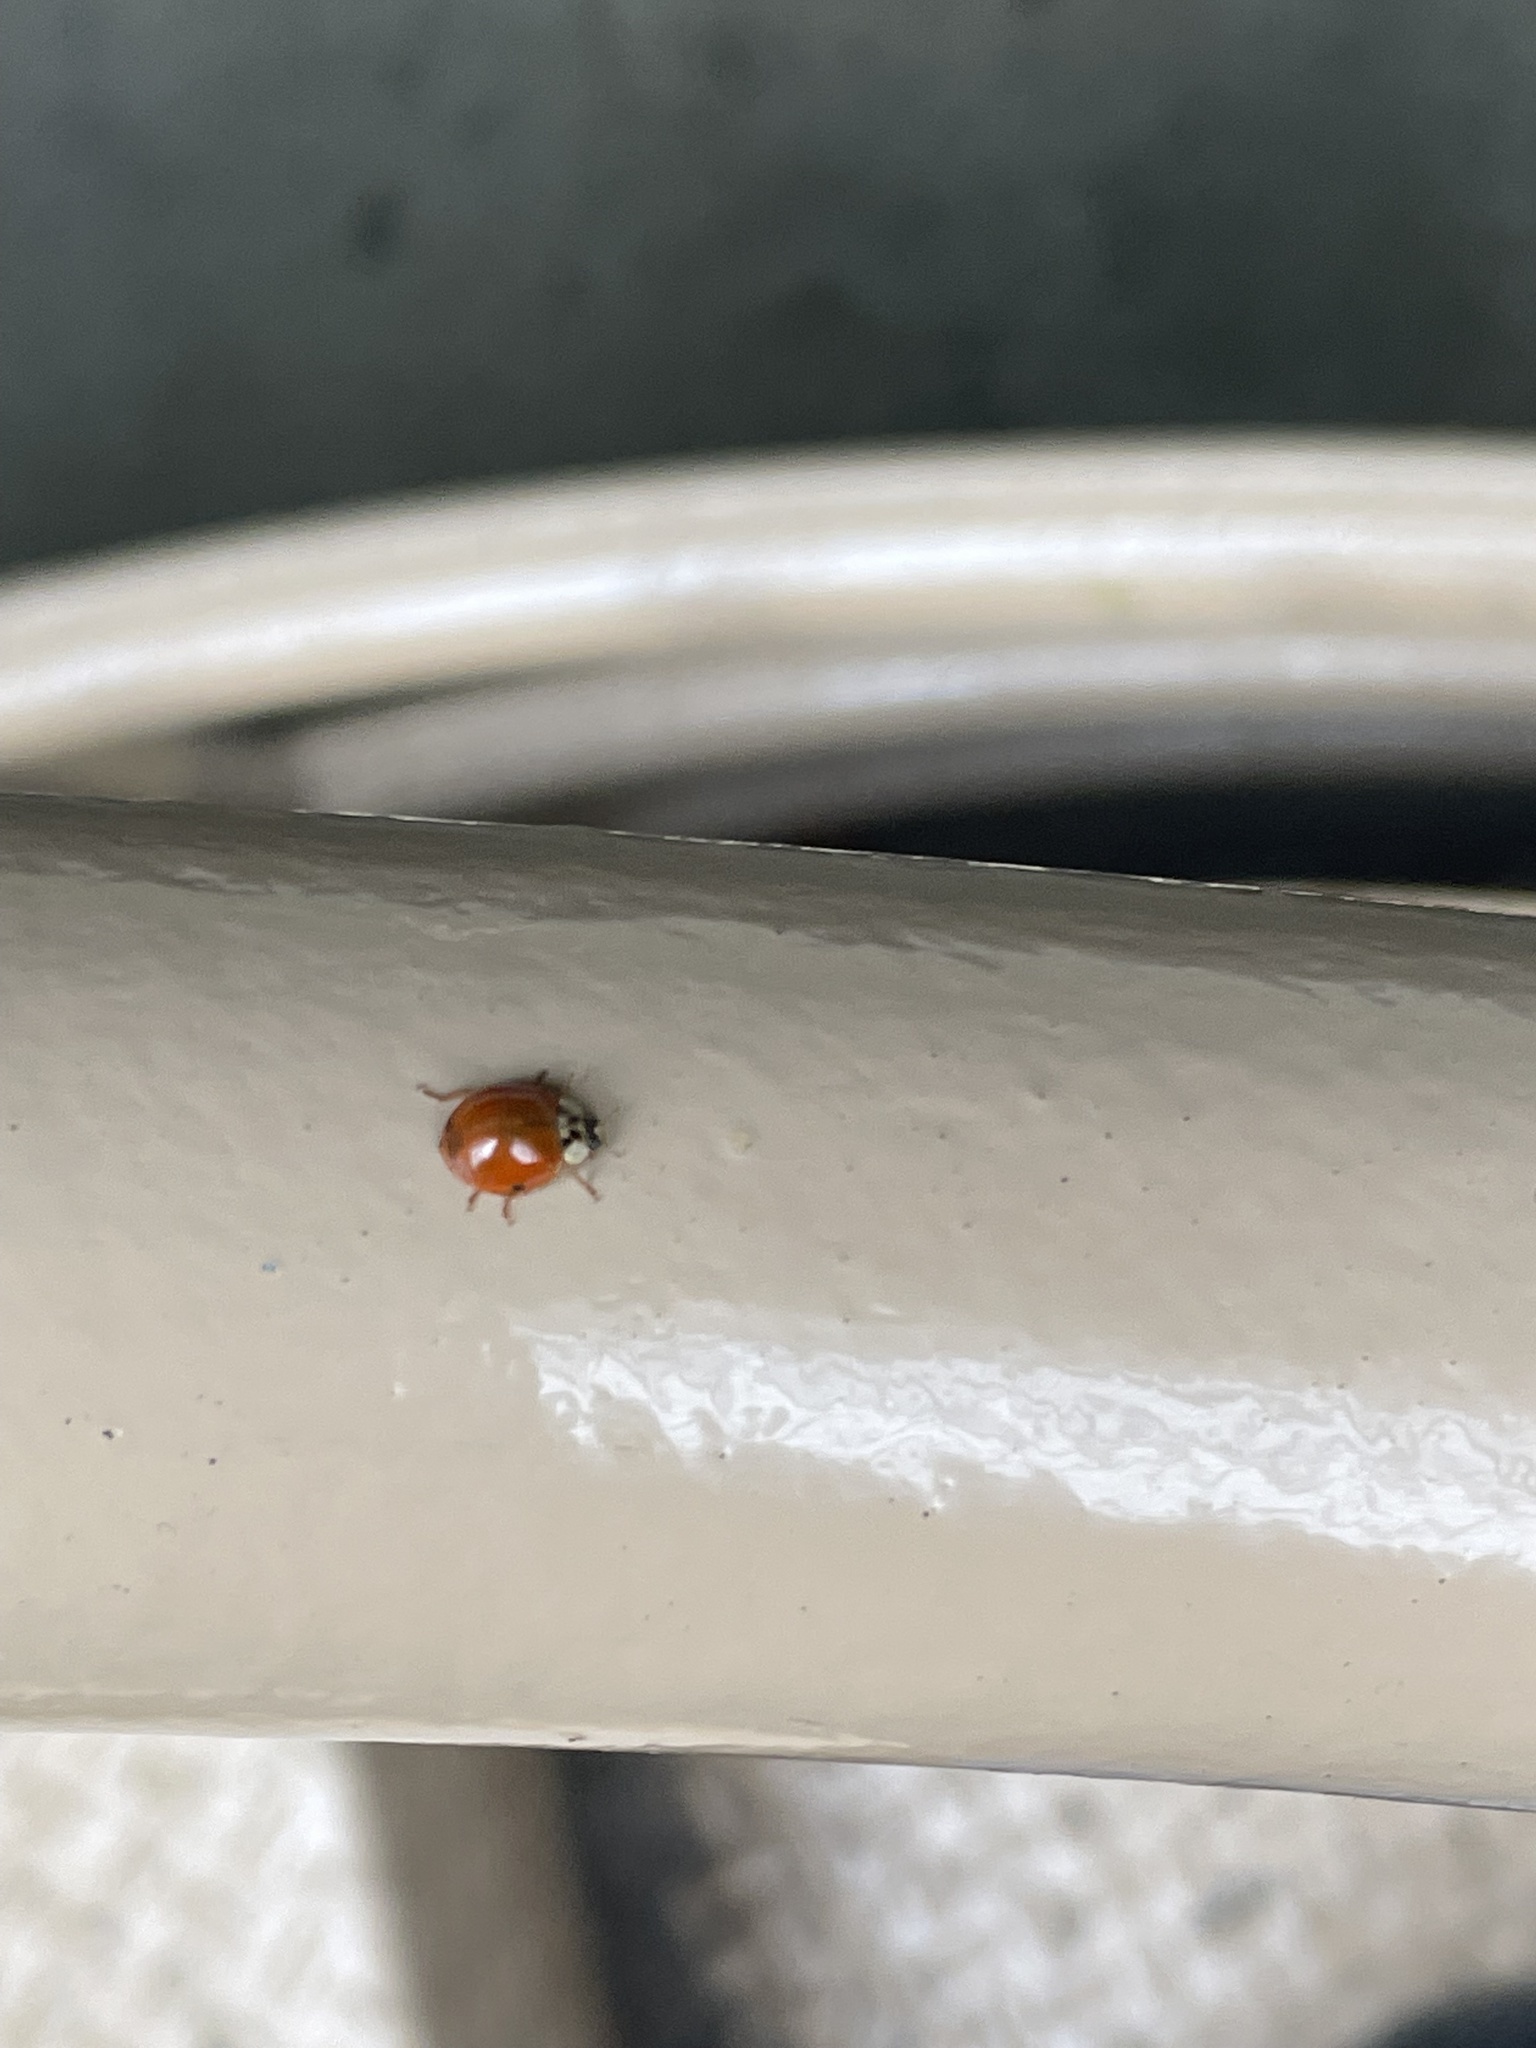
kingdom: Animalia
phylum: Arthropoda
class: Insecta
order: Coleoptera
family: Coccinellidae
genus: Harmonia
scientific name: Harmonia axyridis
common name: Harlequin ladybird
